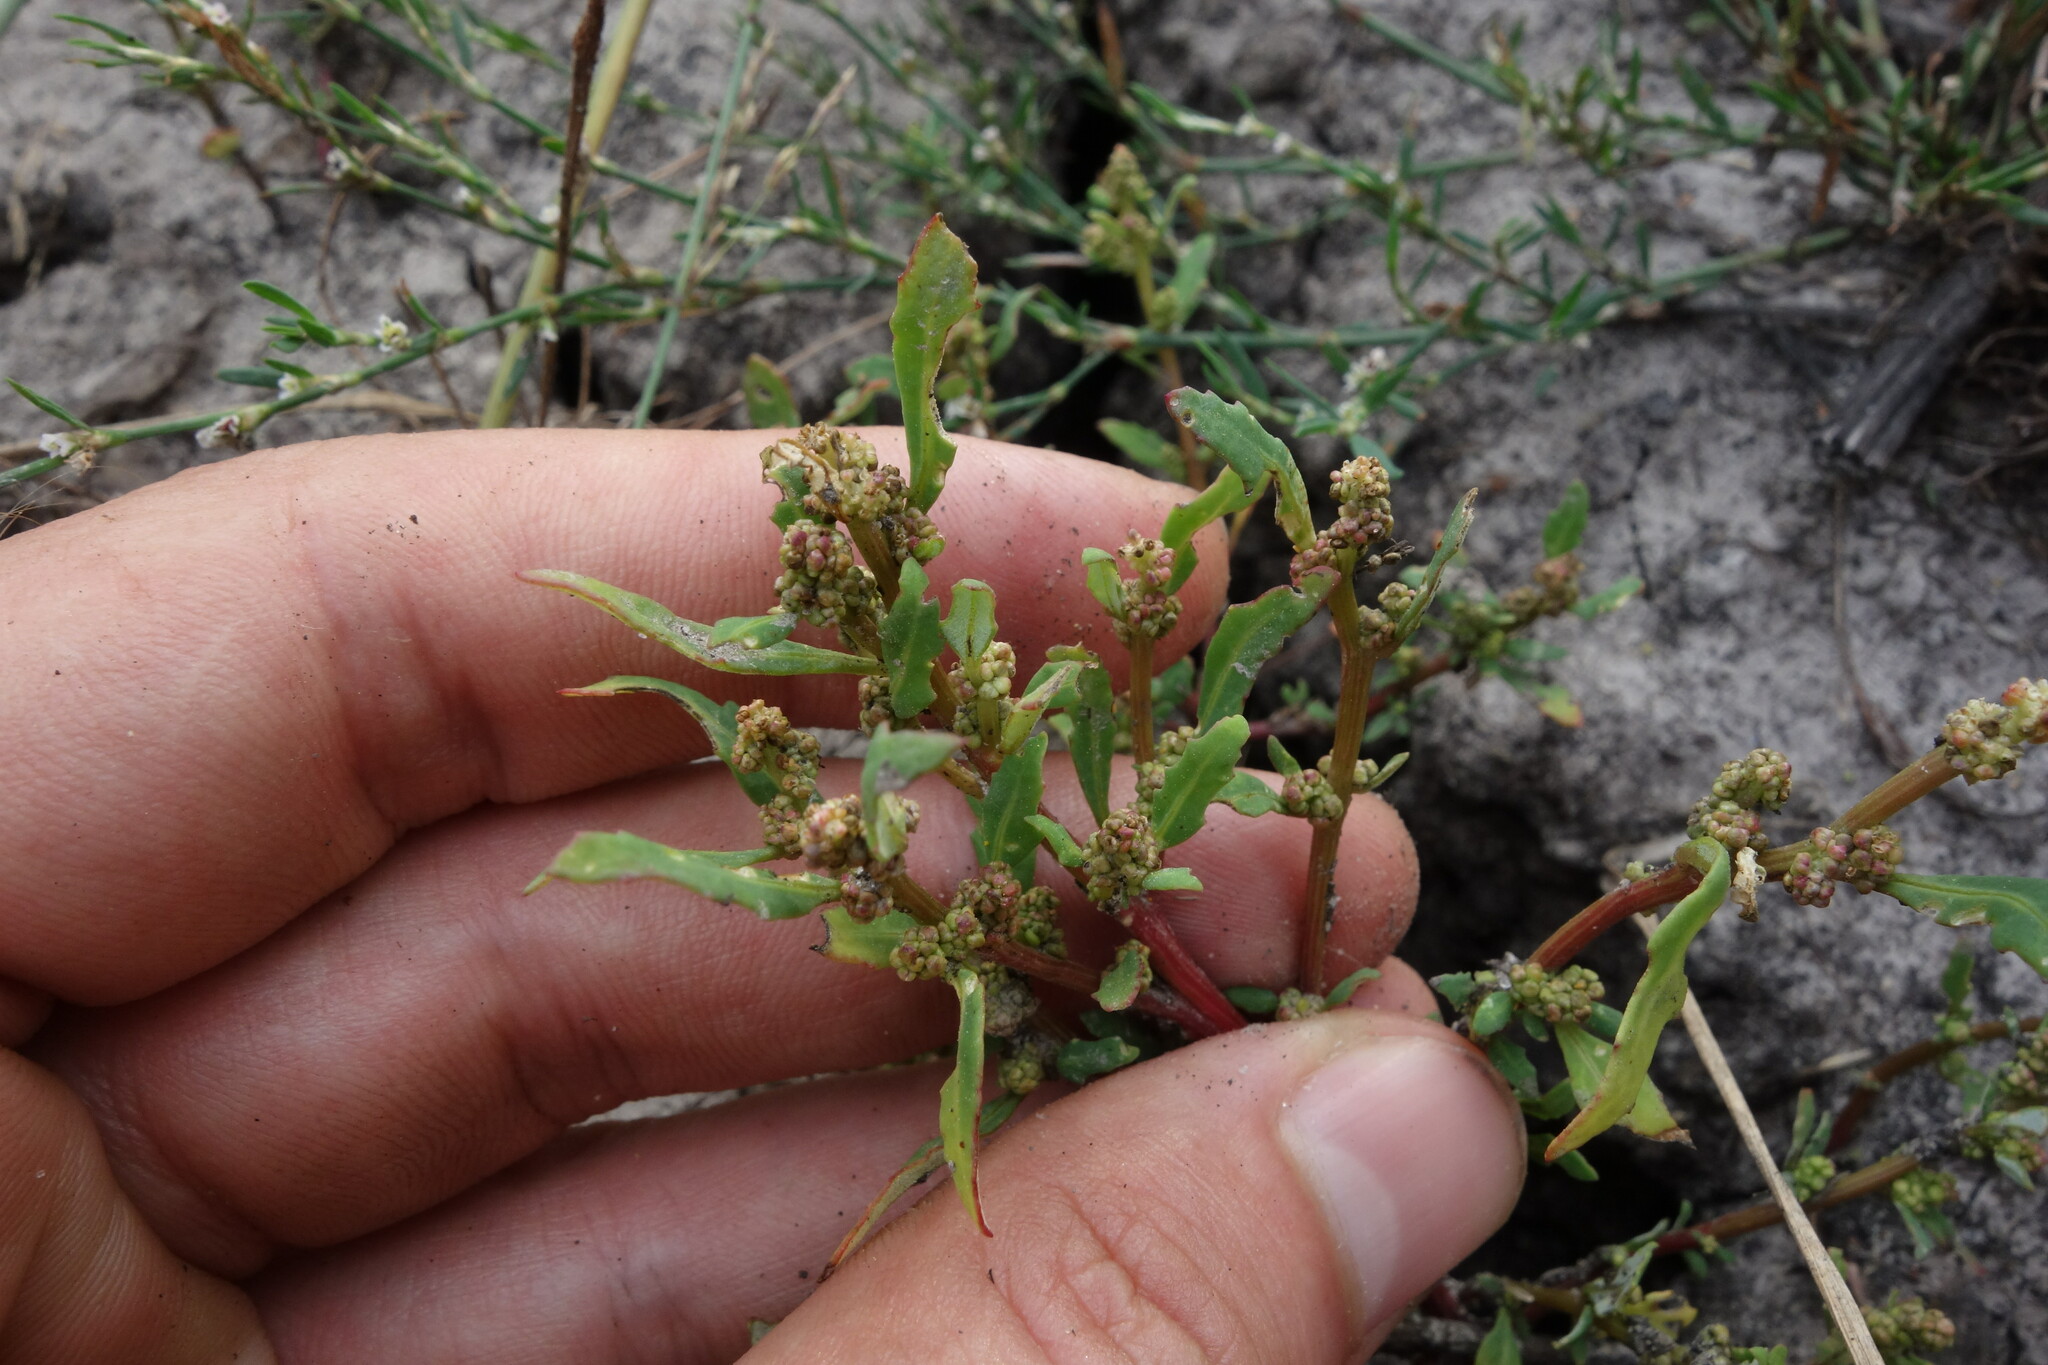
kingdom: Plantae
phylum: Tracheophyta
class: Magnoliopsida
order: Caryophyllales
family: Amaranthaceae
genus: Oxybasis
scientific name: Oxybasis glauca
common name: Glaucous goosefoot
